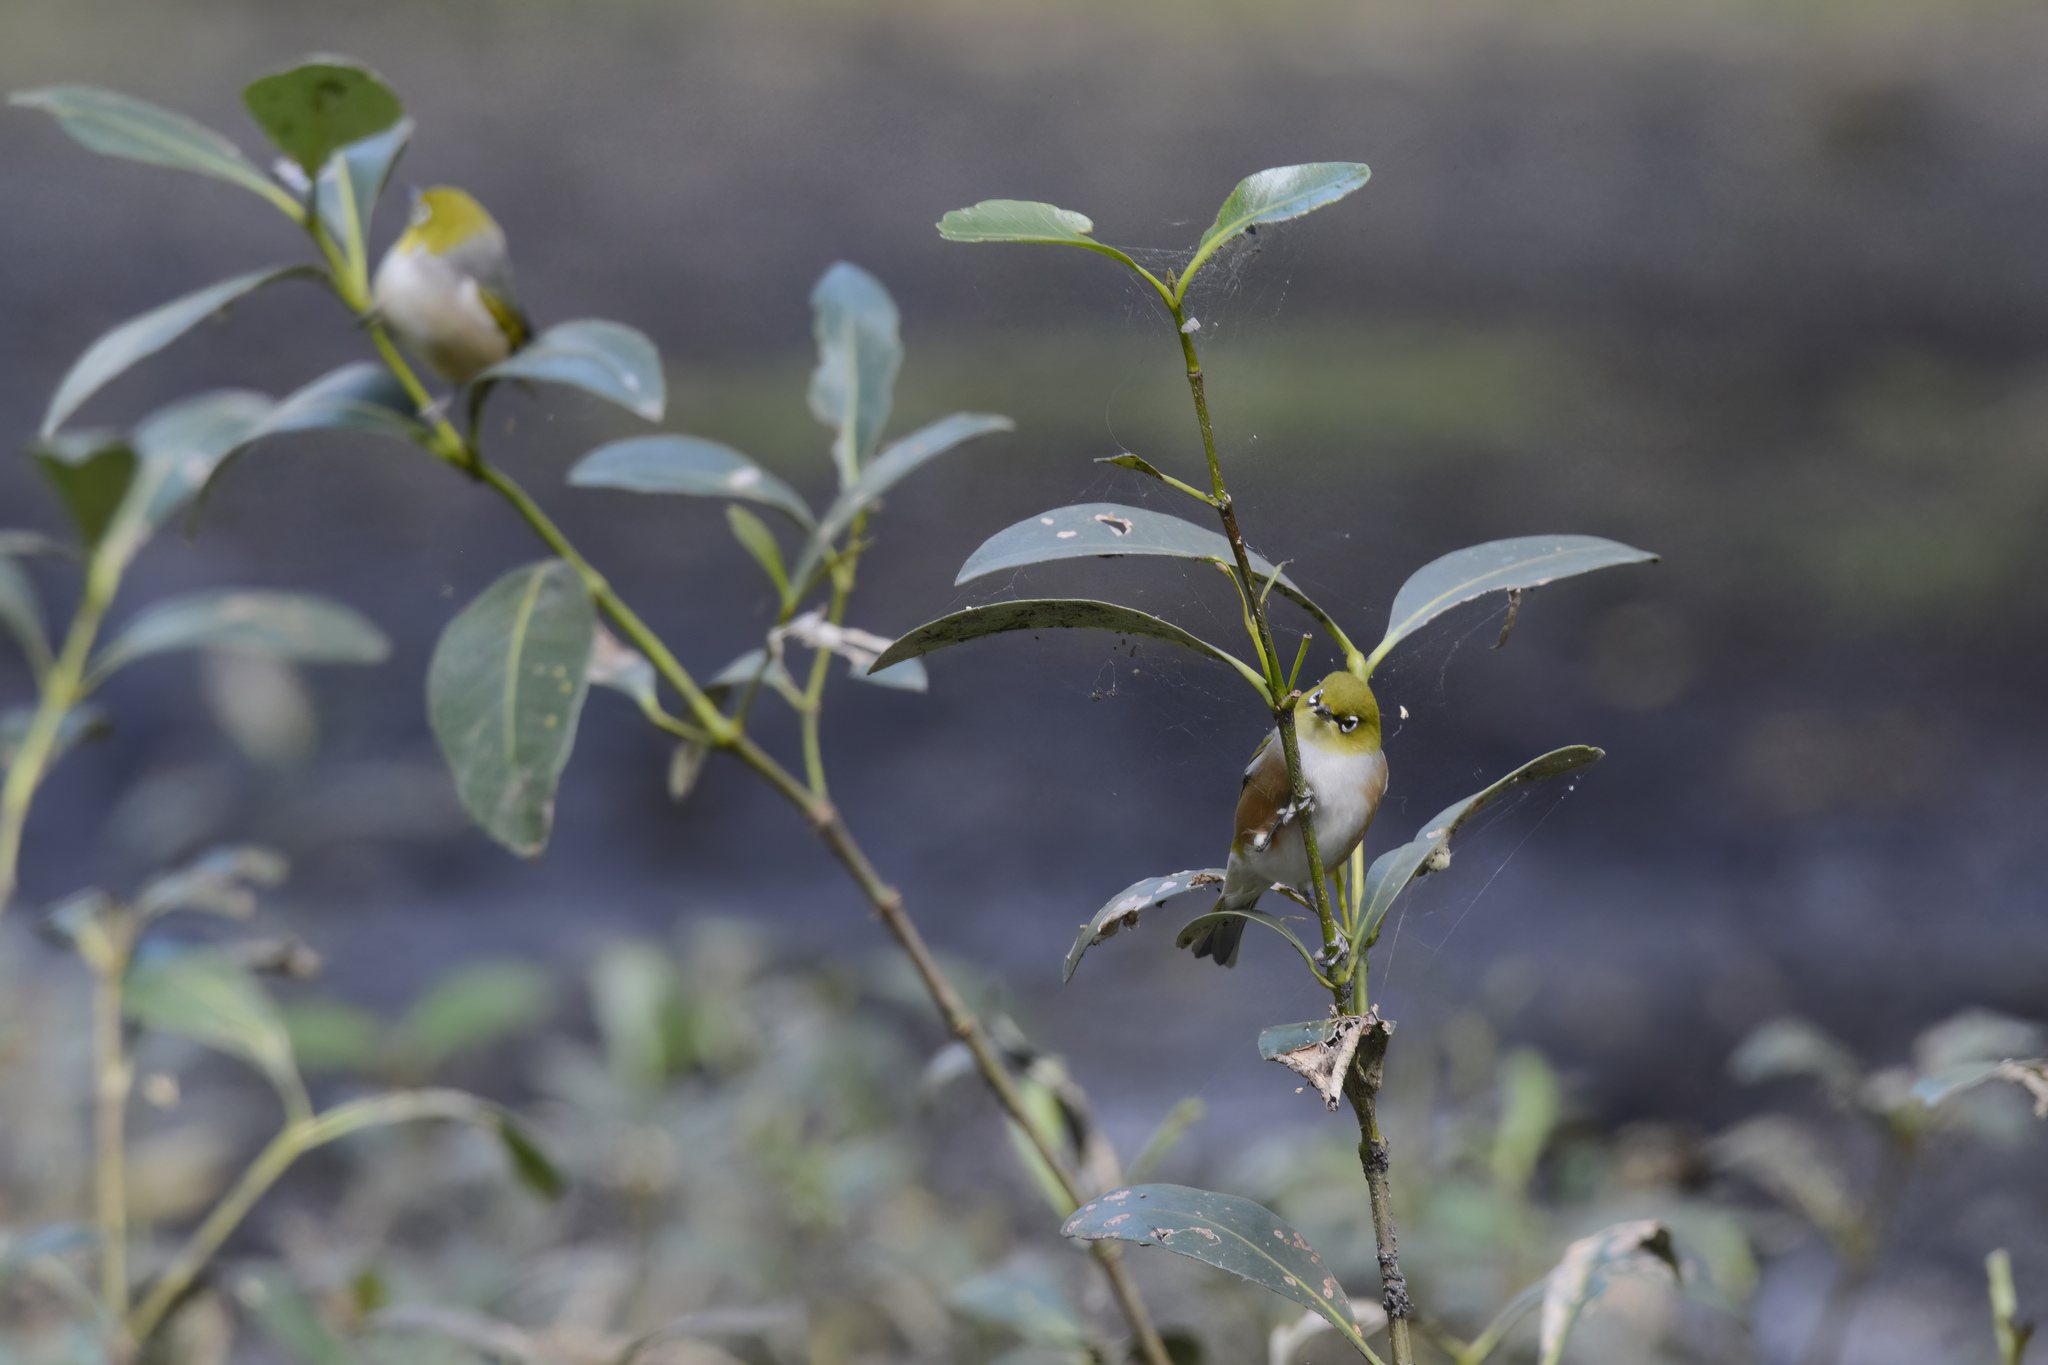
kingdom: Animalia
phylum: Chordata
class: Aves
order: Passeriformes
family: Zosteropidae
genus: Zosterops
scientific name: Zosterops lateralis
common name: Silvereye
